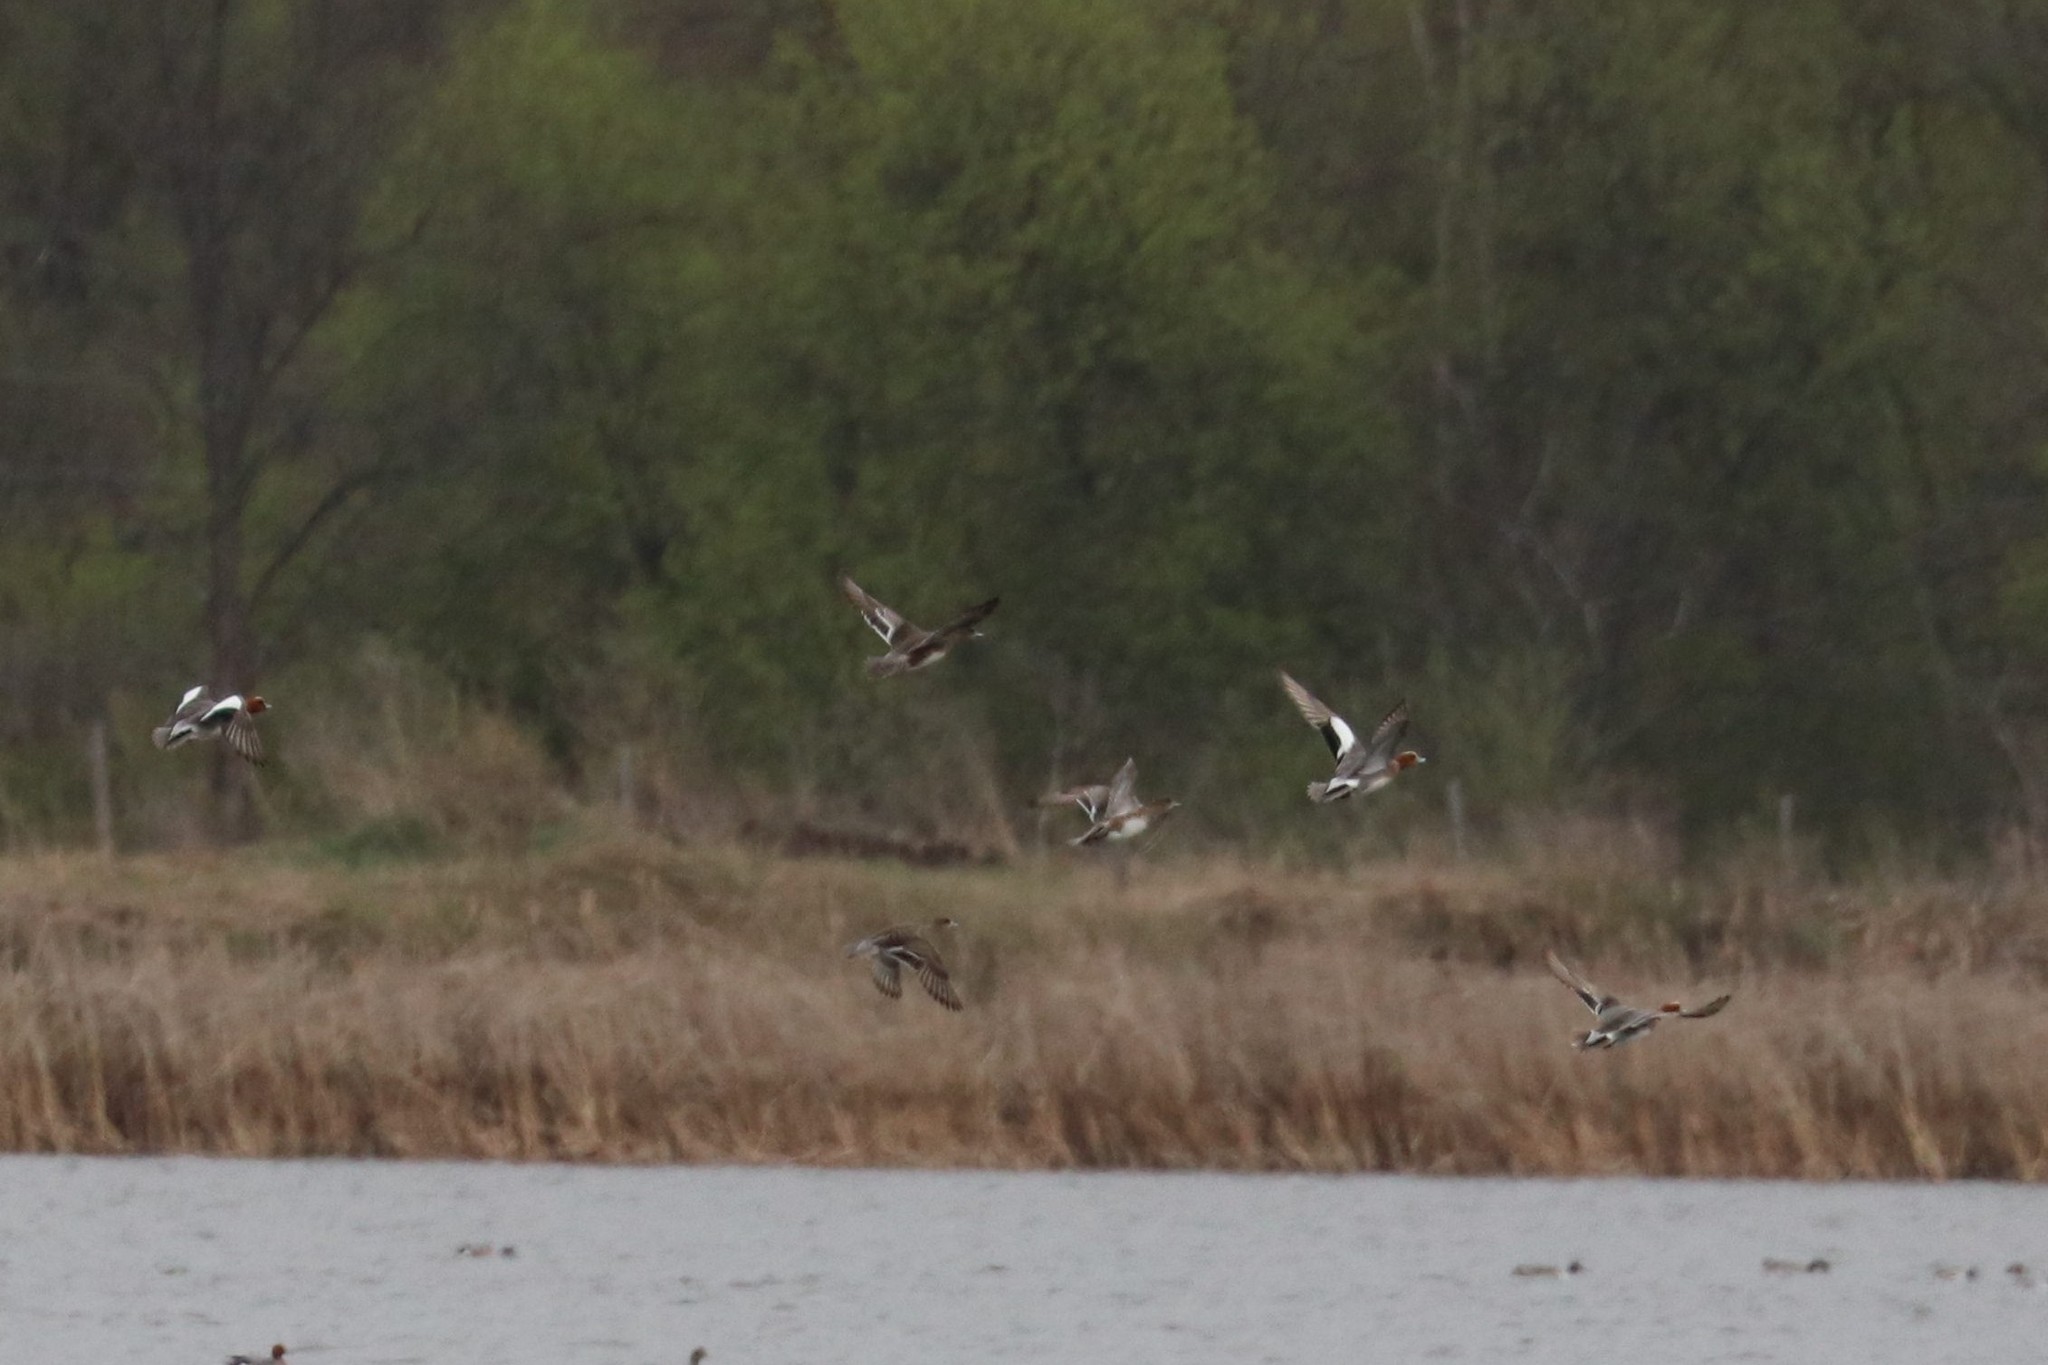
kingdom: Animalia
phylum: Chordata
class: Aves
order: Anseriformes
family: Anatidae
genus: Mareca
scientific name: Mareca penelope
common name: Eurasian wigeon
